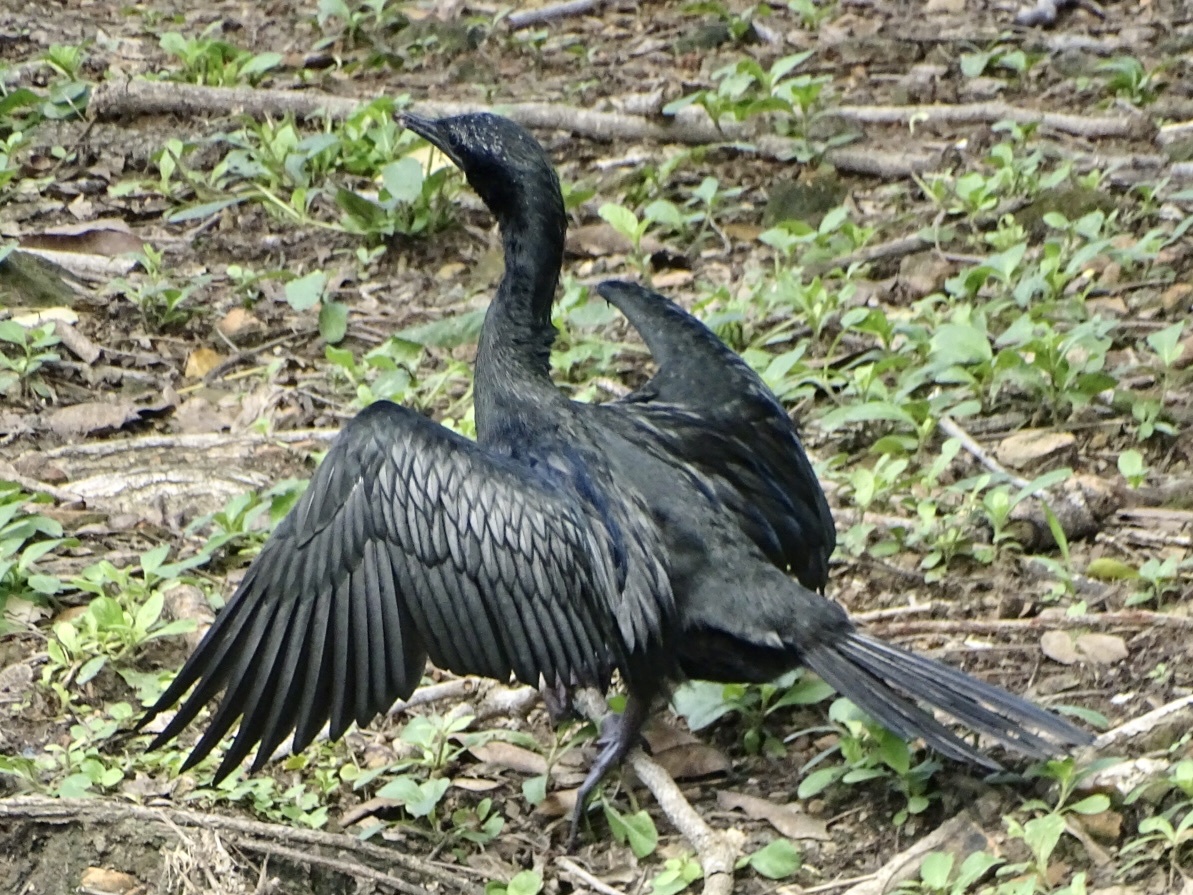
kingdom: Animalia
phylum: Chordata
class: Aves
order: Suliformes
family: Phalacrocoracidae
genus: Microcarbo
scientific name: Microcarbo niger
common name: Little cormorant
